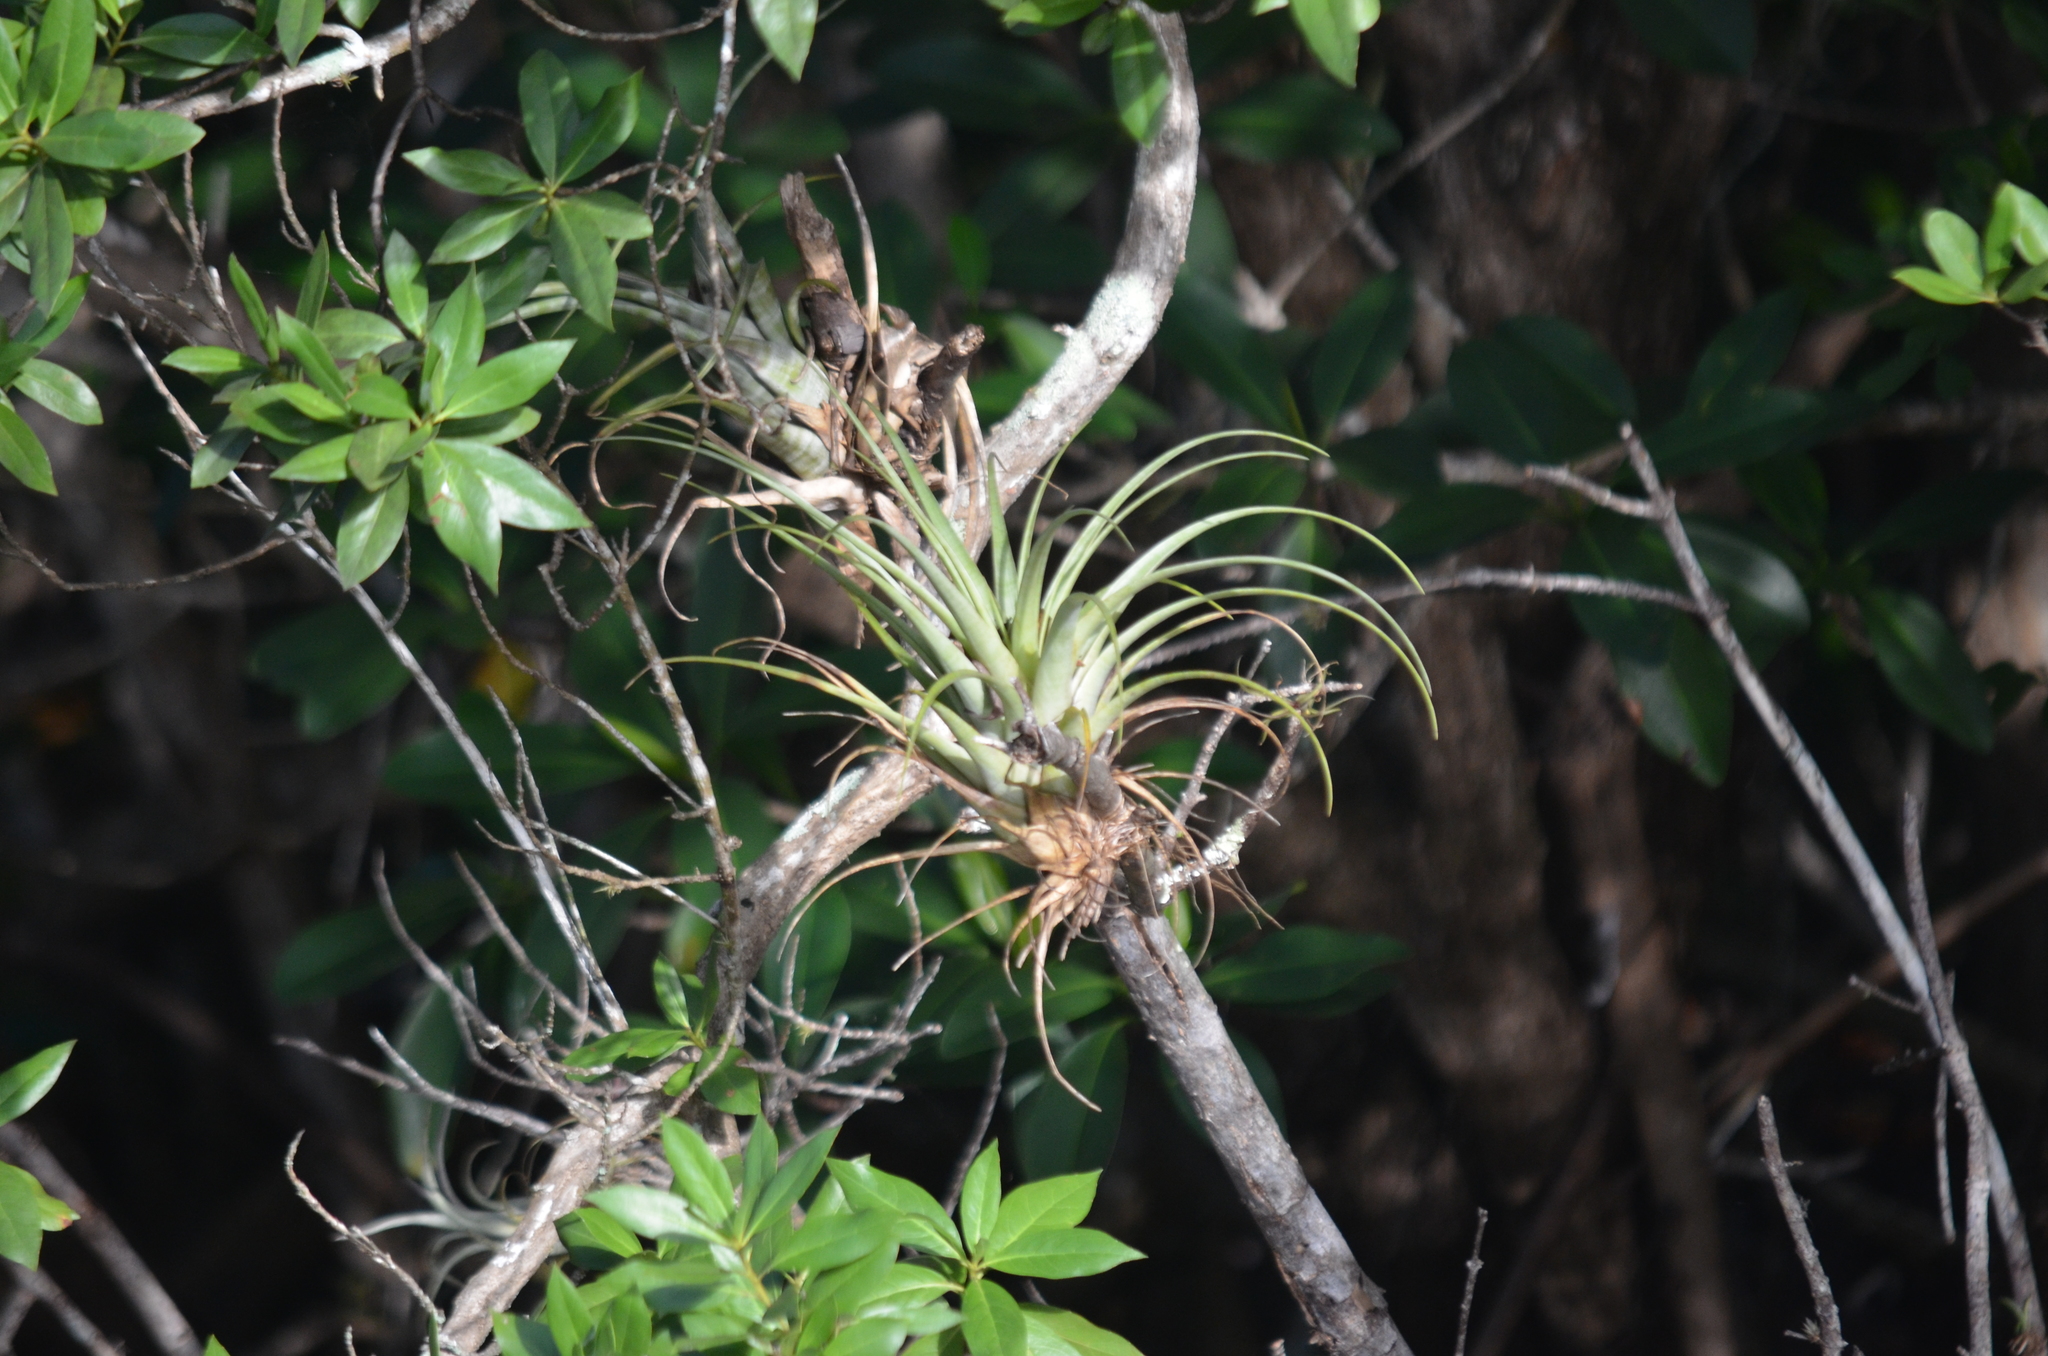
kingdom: Plantae
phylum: Tracheophyta
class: Liliopsida
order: Poales
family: Bromeliaceae
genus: Tillandsia
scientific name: Tillandsia flexuosa
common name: Banded airplant
